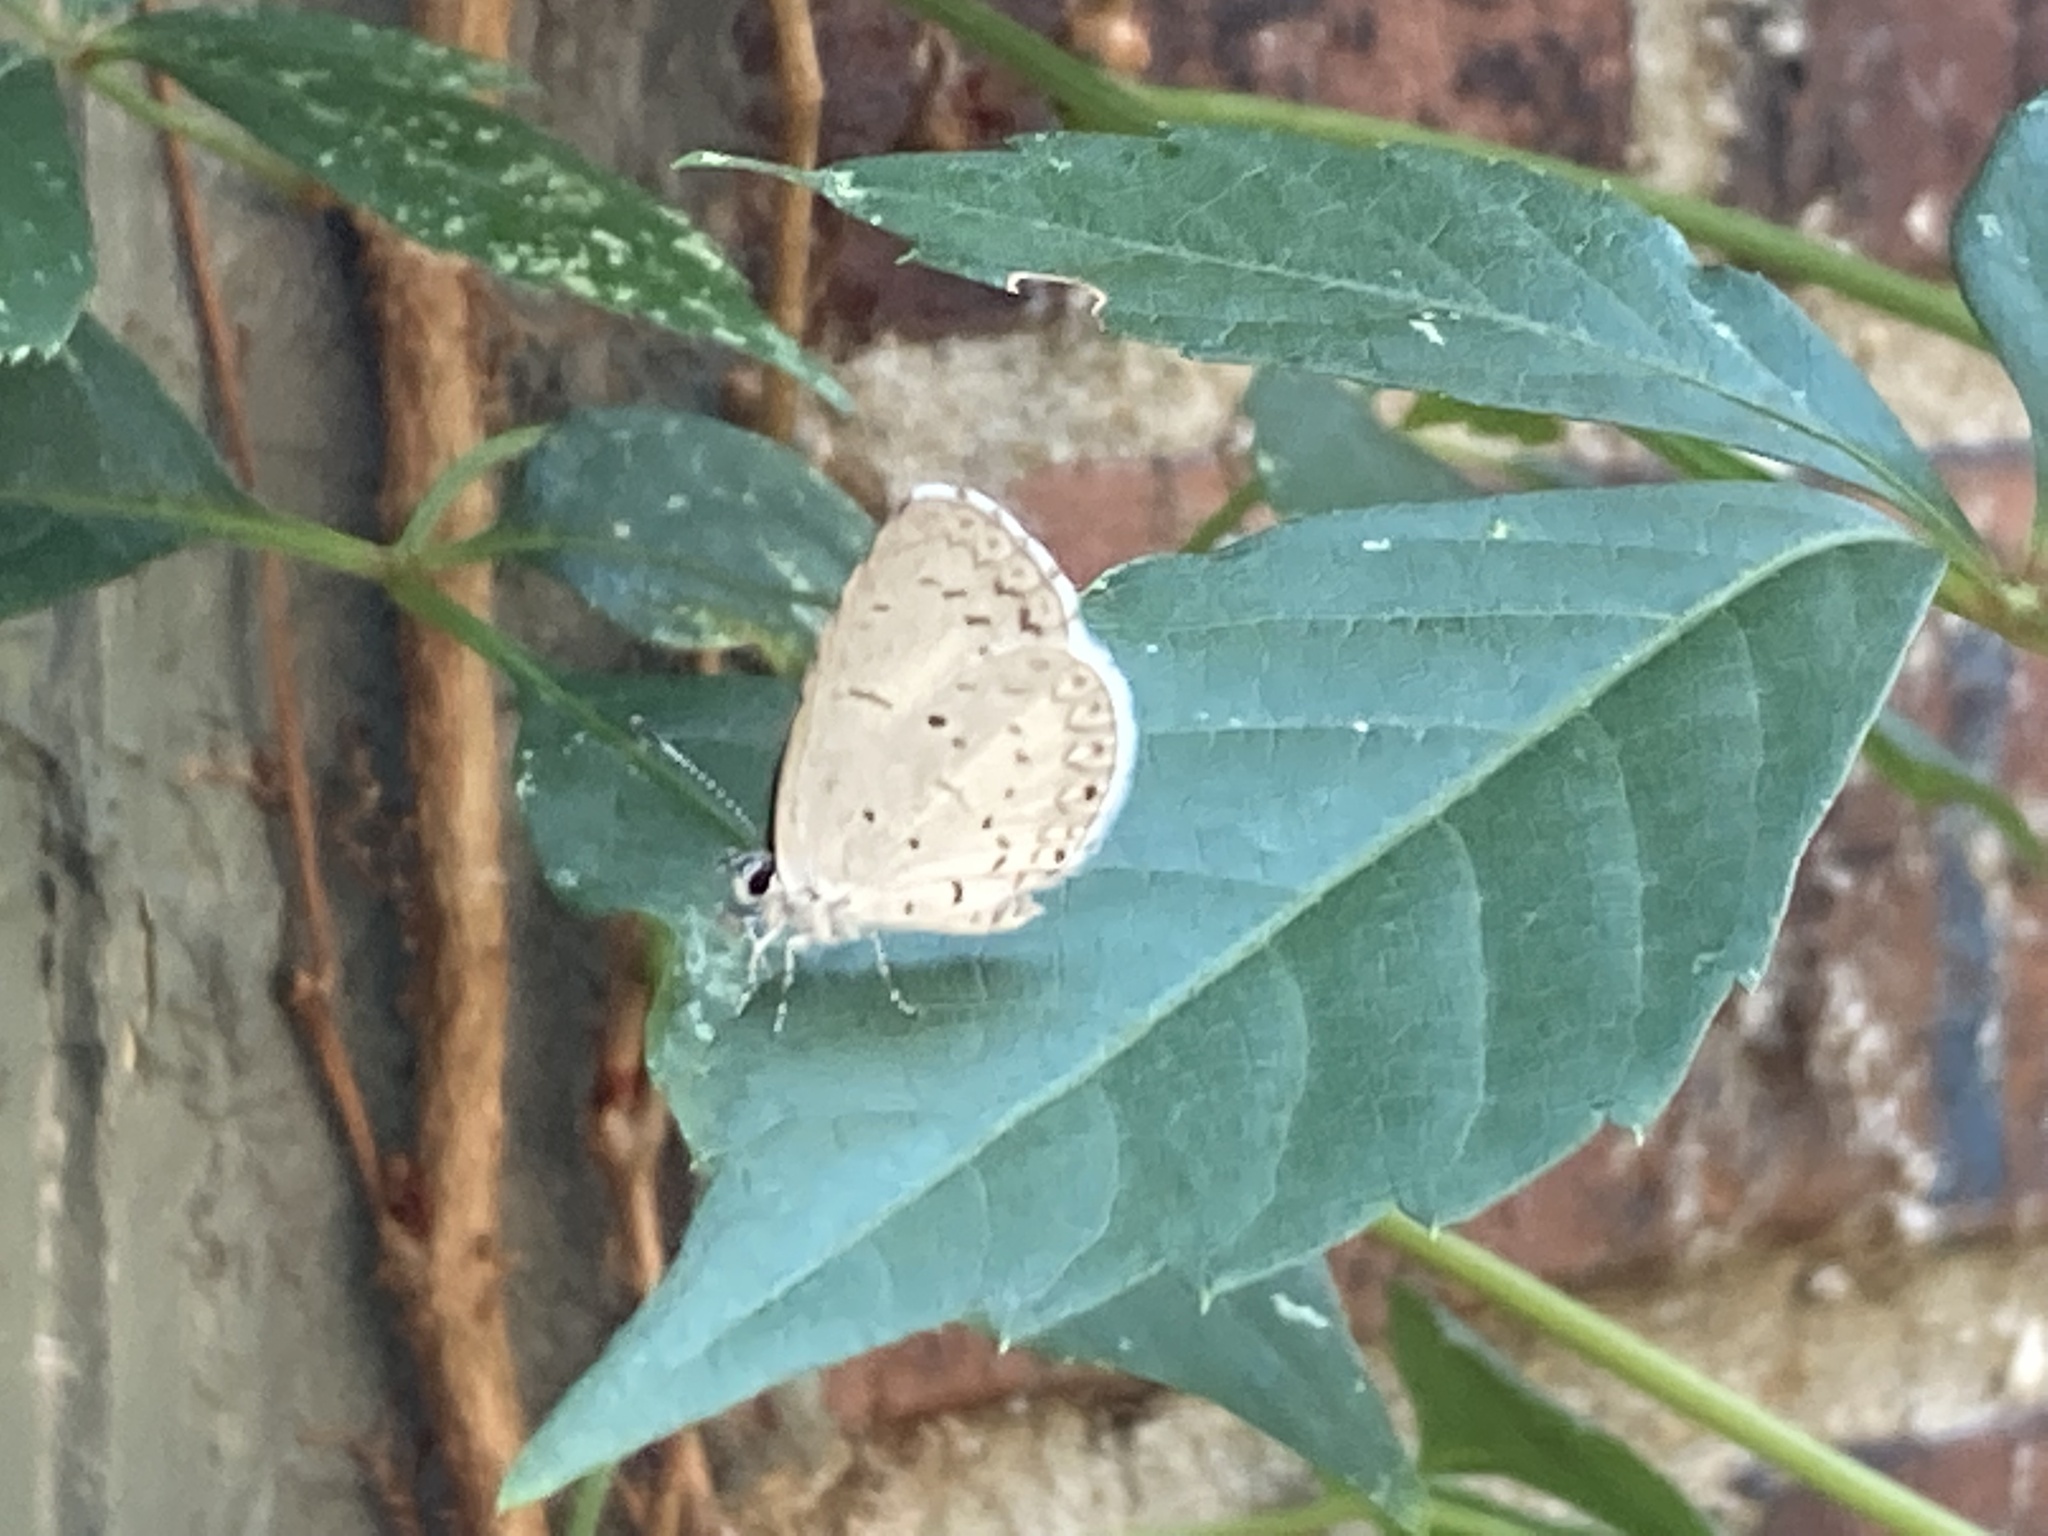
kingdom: Animalia
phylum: Arthropoda
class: Insecta
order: Lepidoptera
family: Lycaenidae
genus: Cyaniris
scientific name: Cyaniris neglecta
